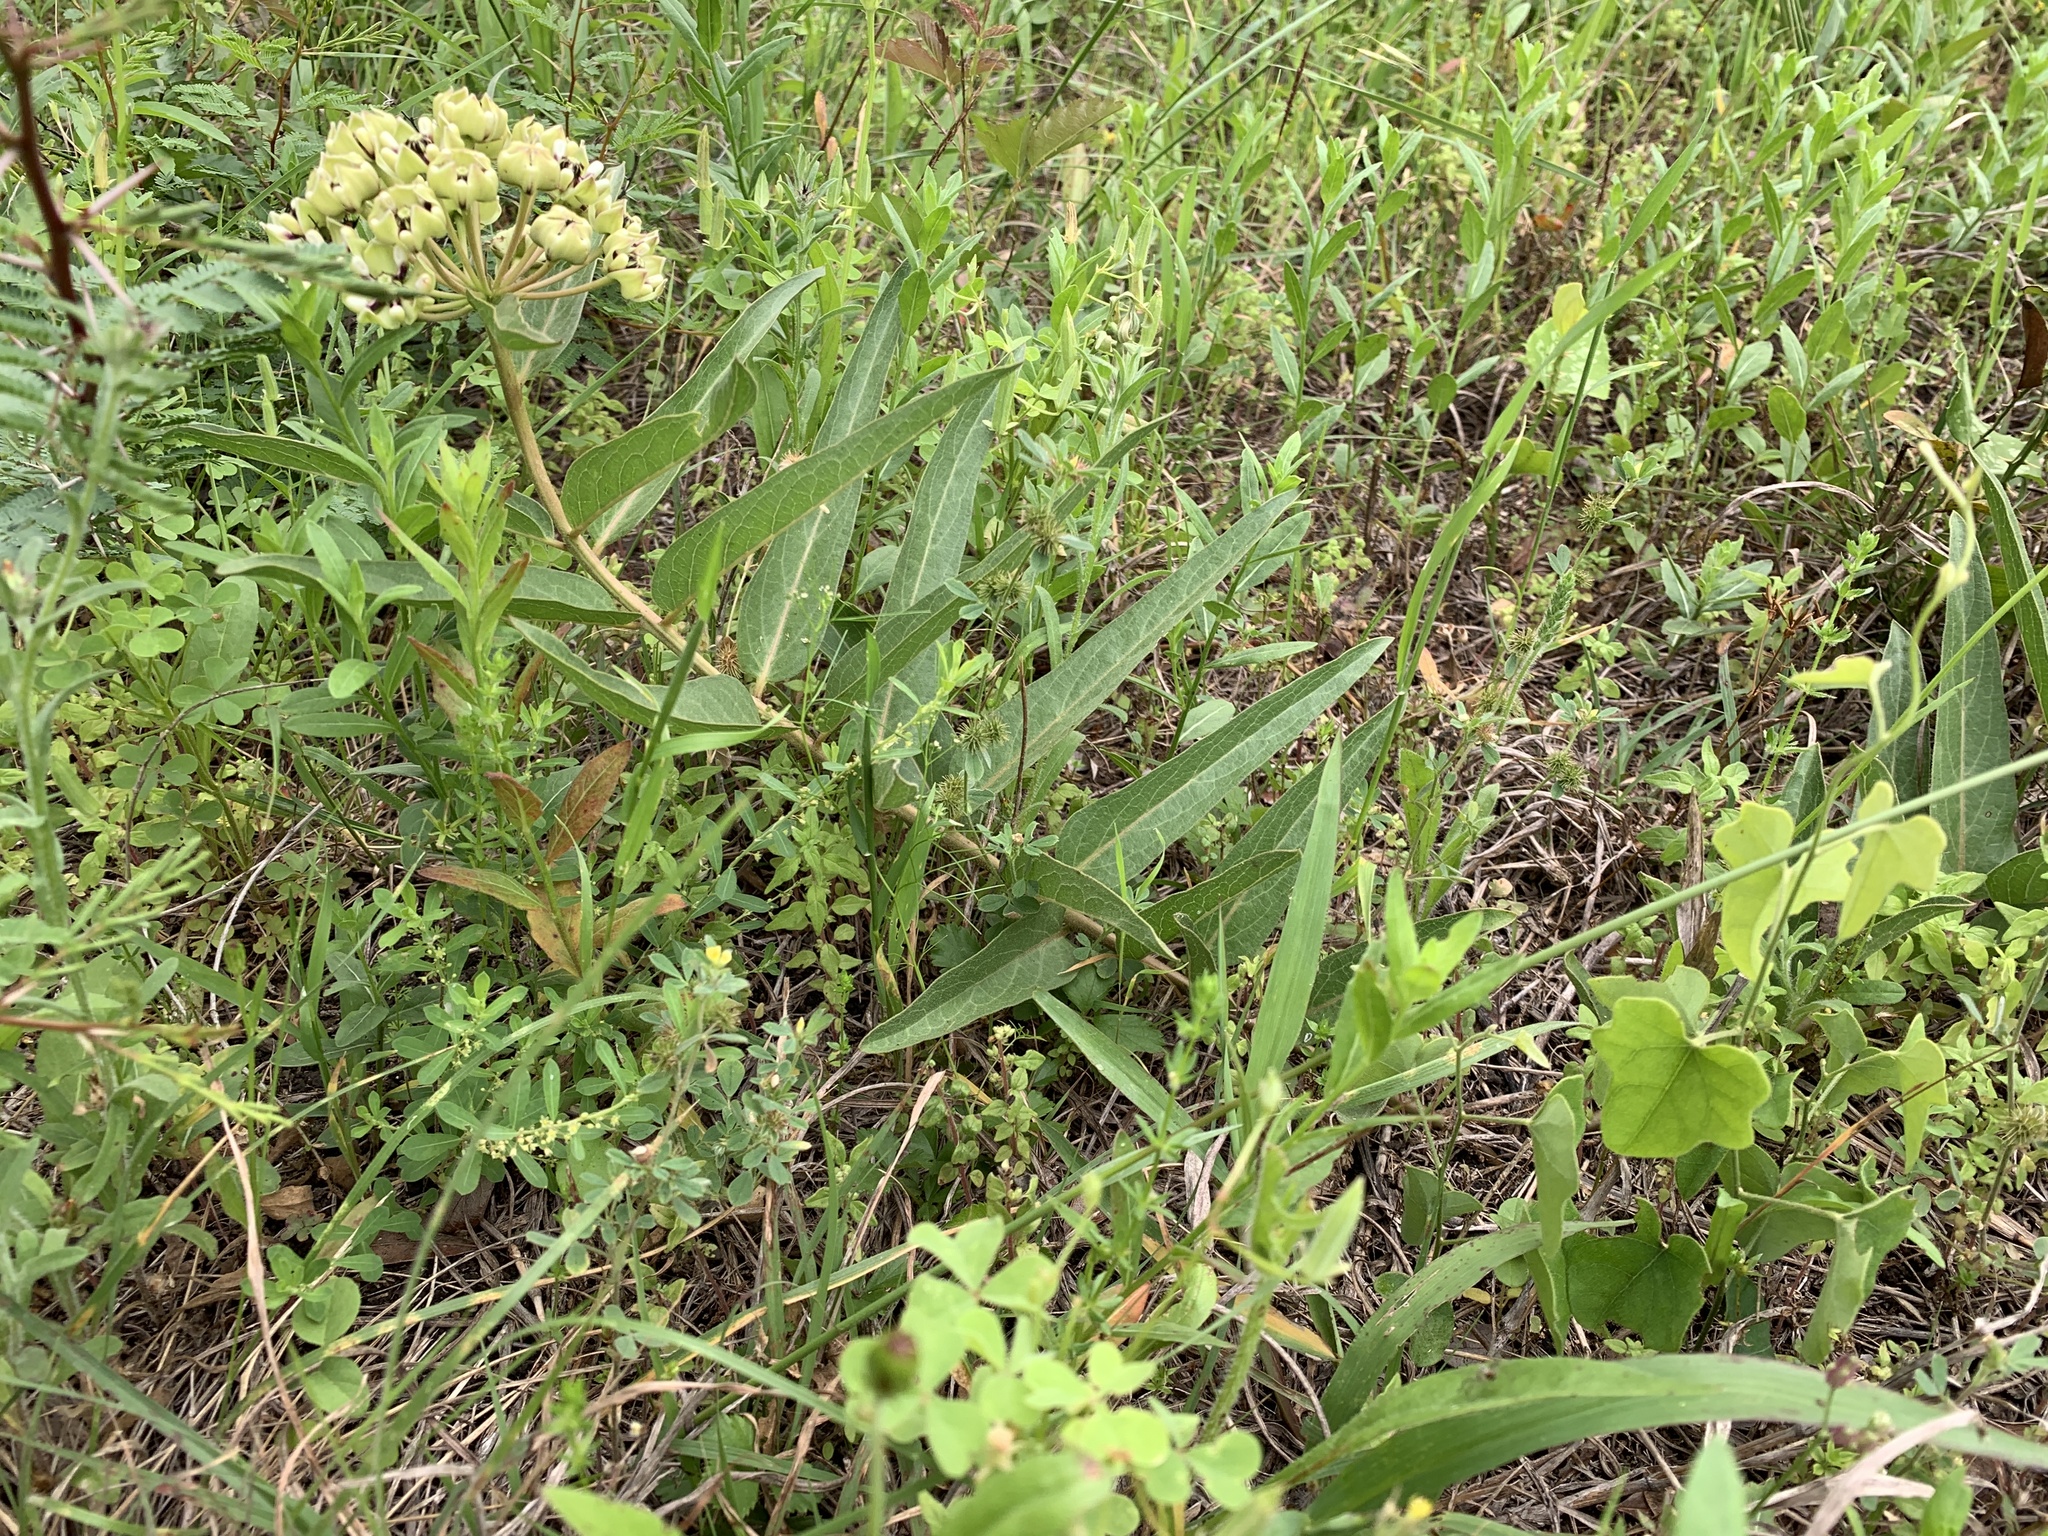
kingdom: Plantae
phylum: Tracheophyta
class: Magnoliopsida
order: Gentianales
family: Apocynaceae
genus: Asclepias
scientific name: Asclepias asperula
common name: Antelope horns
